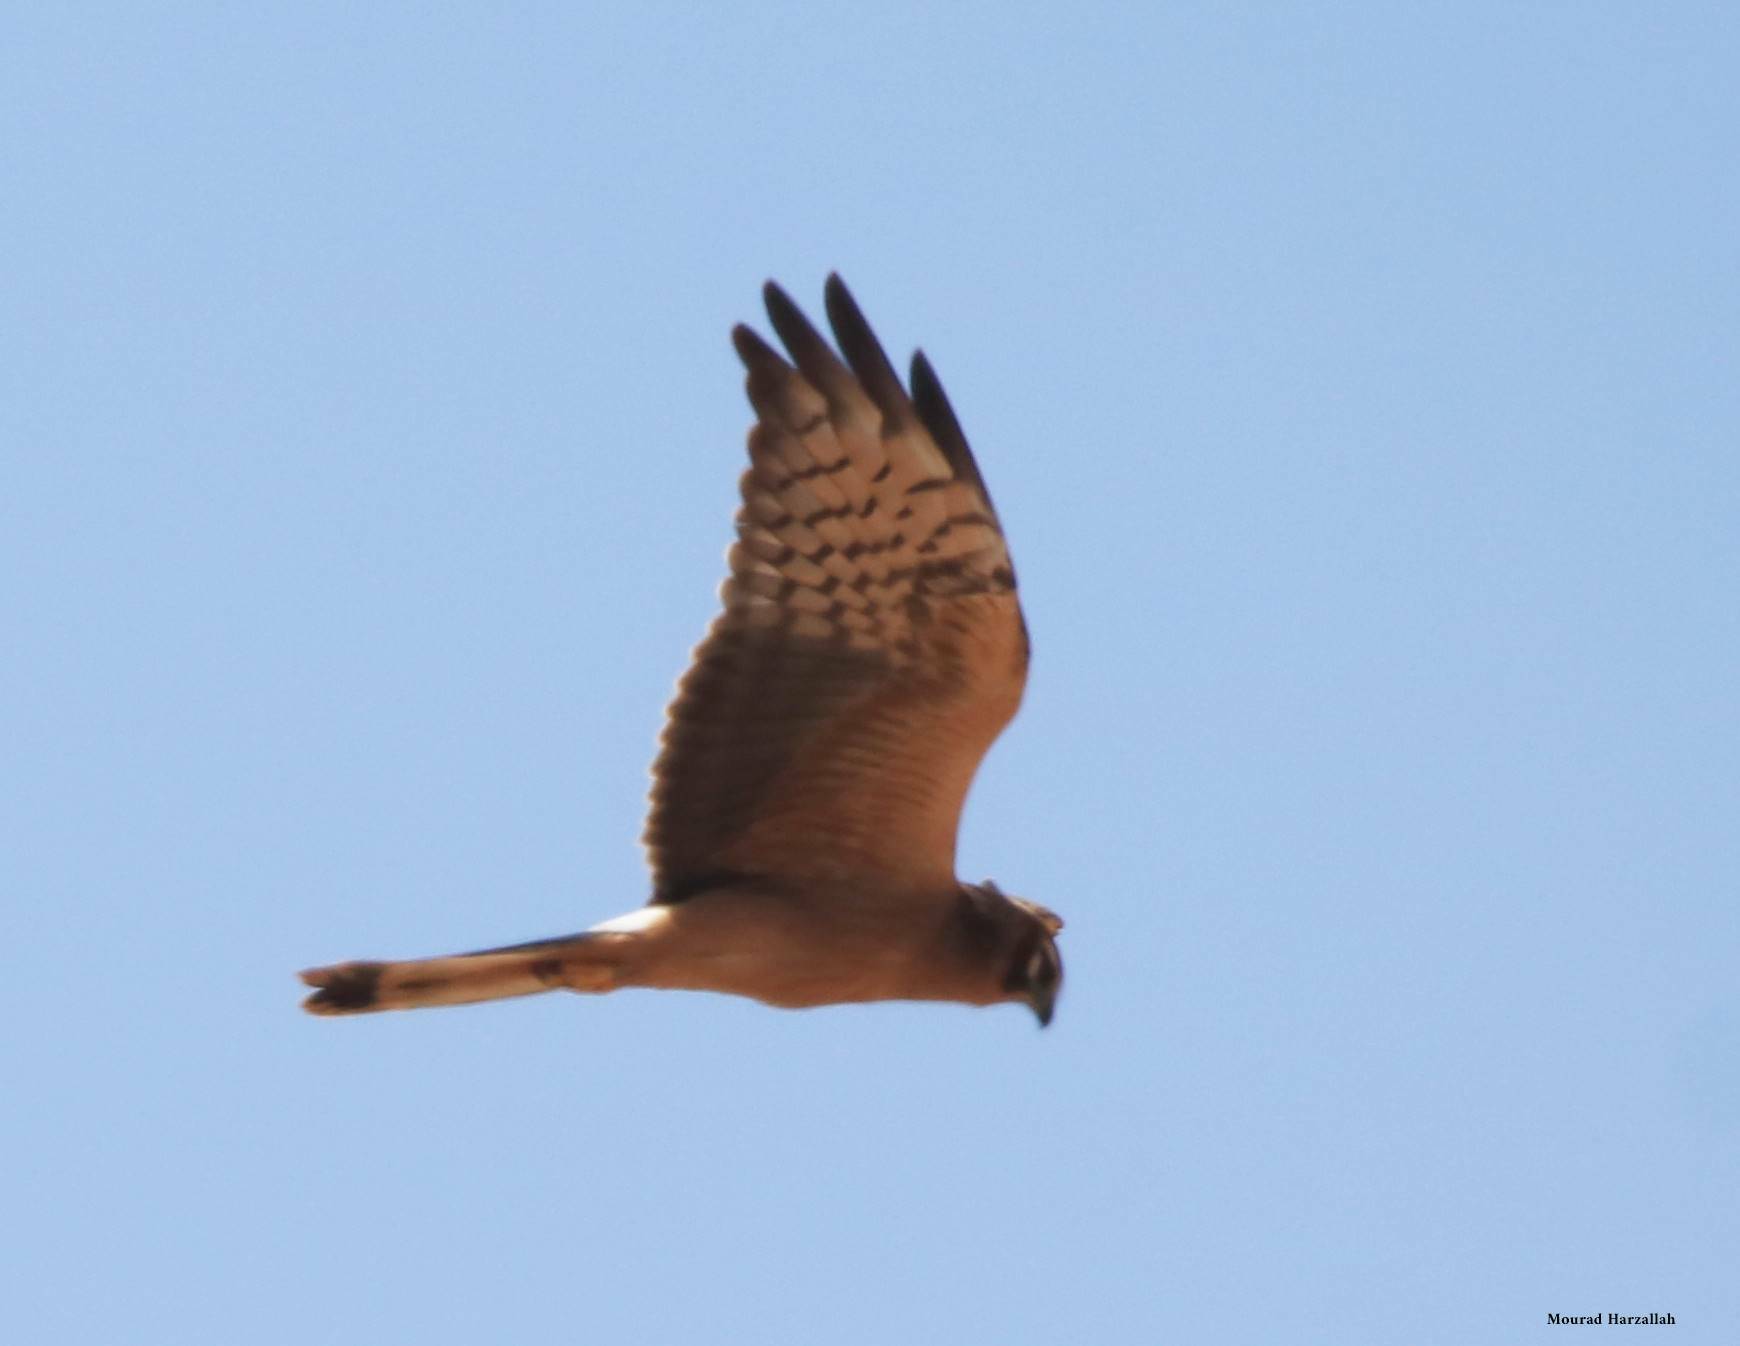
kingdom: Animalia
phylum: Chordata
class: Aves
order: Accipitriformes
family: Accipitridae
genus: Circus
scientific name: Circus pygargus
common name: Montagu's harrier
